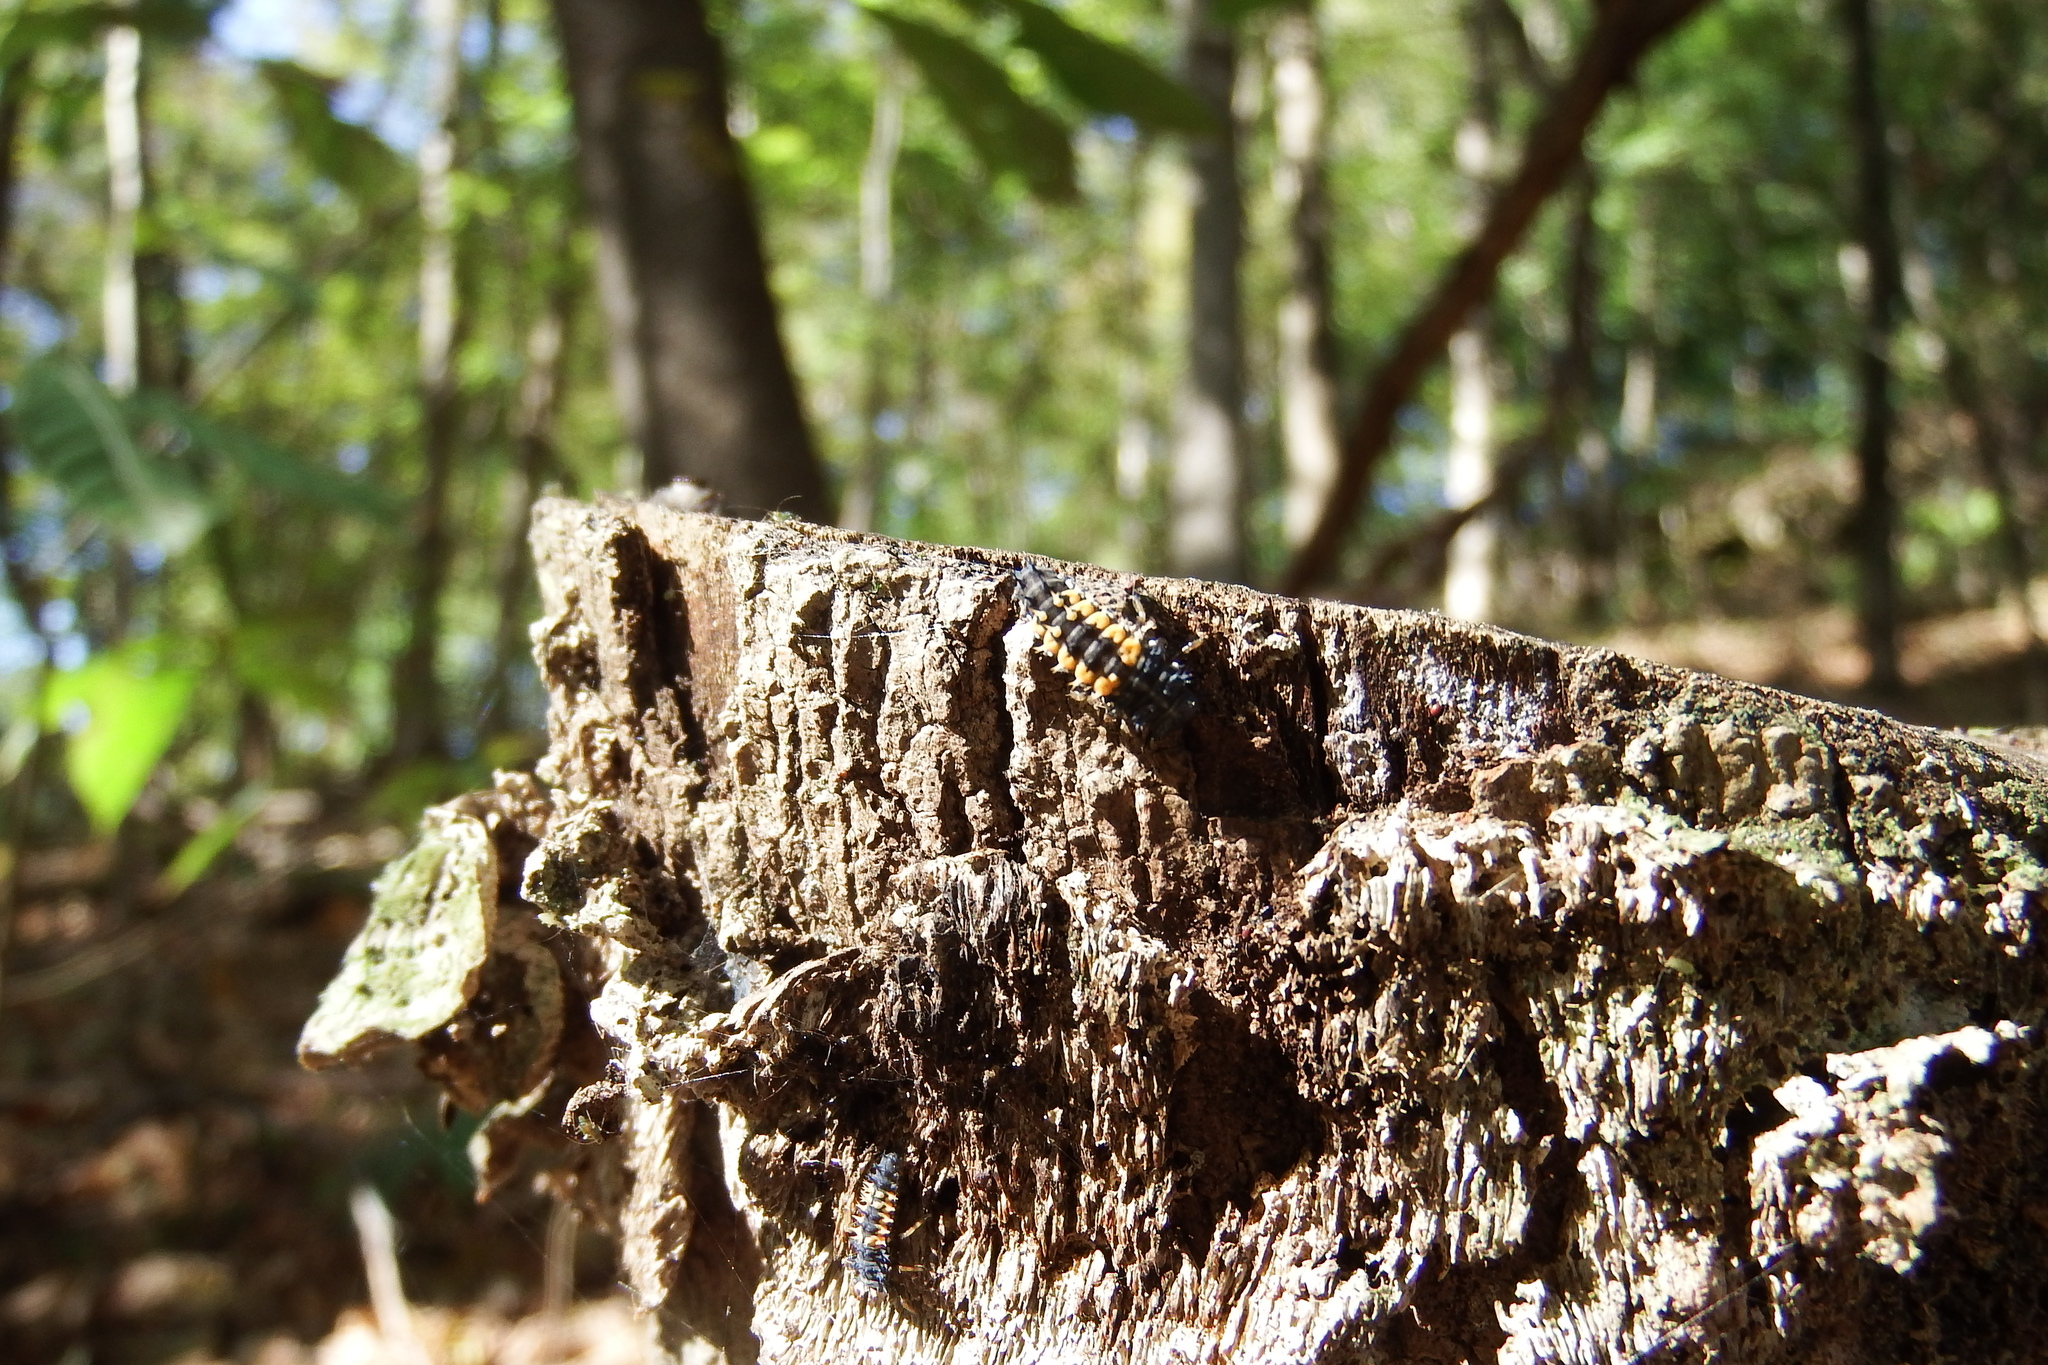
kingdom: Animalia
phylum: Arthropoda
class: Insecta
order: Coleoptera
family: Coccinellidae
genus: Harmonia
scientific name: Harmonia axyridis
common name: Harlequin ladybird
